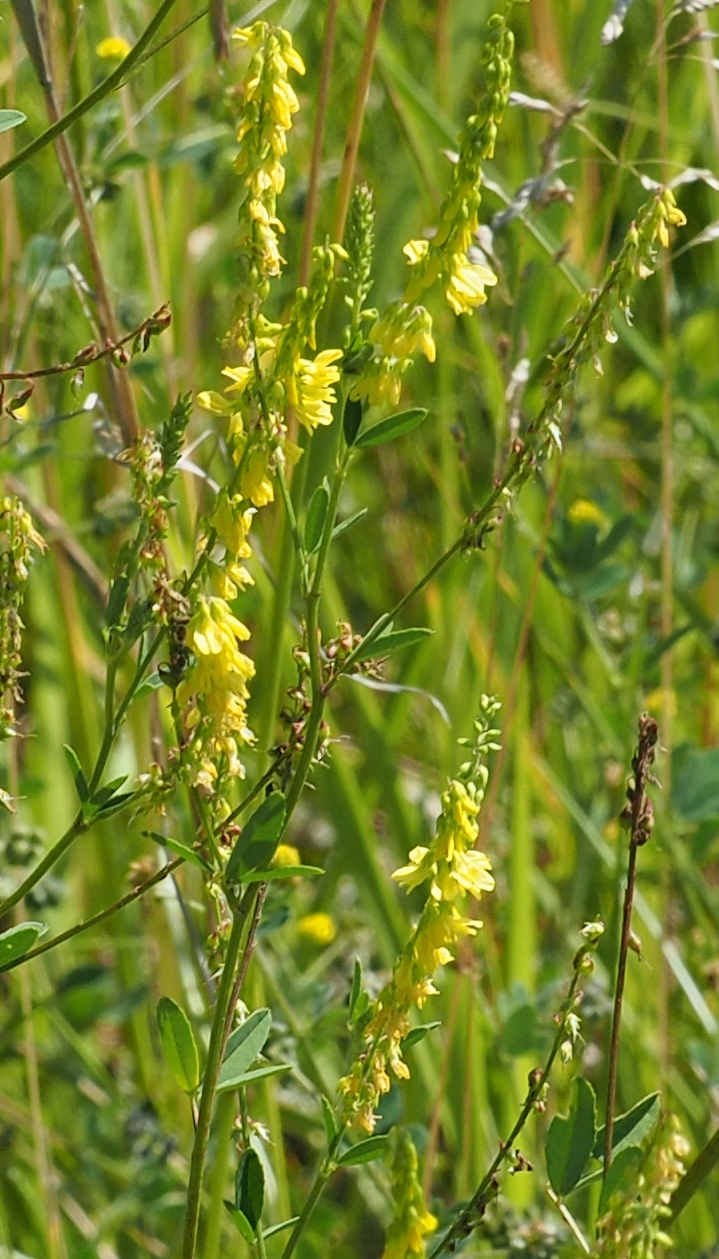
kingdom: Plantae
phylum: Tracheophyta
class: Magnoliopsida
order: Fabales
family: Fabaceae
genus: Melilotus
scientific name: Melilotus officinalis
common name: Sweetclover
